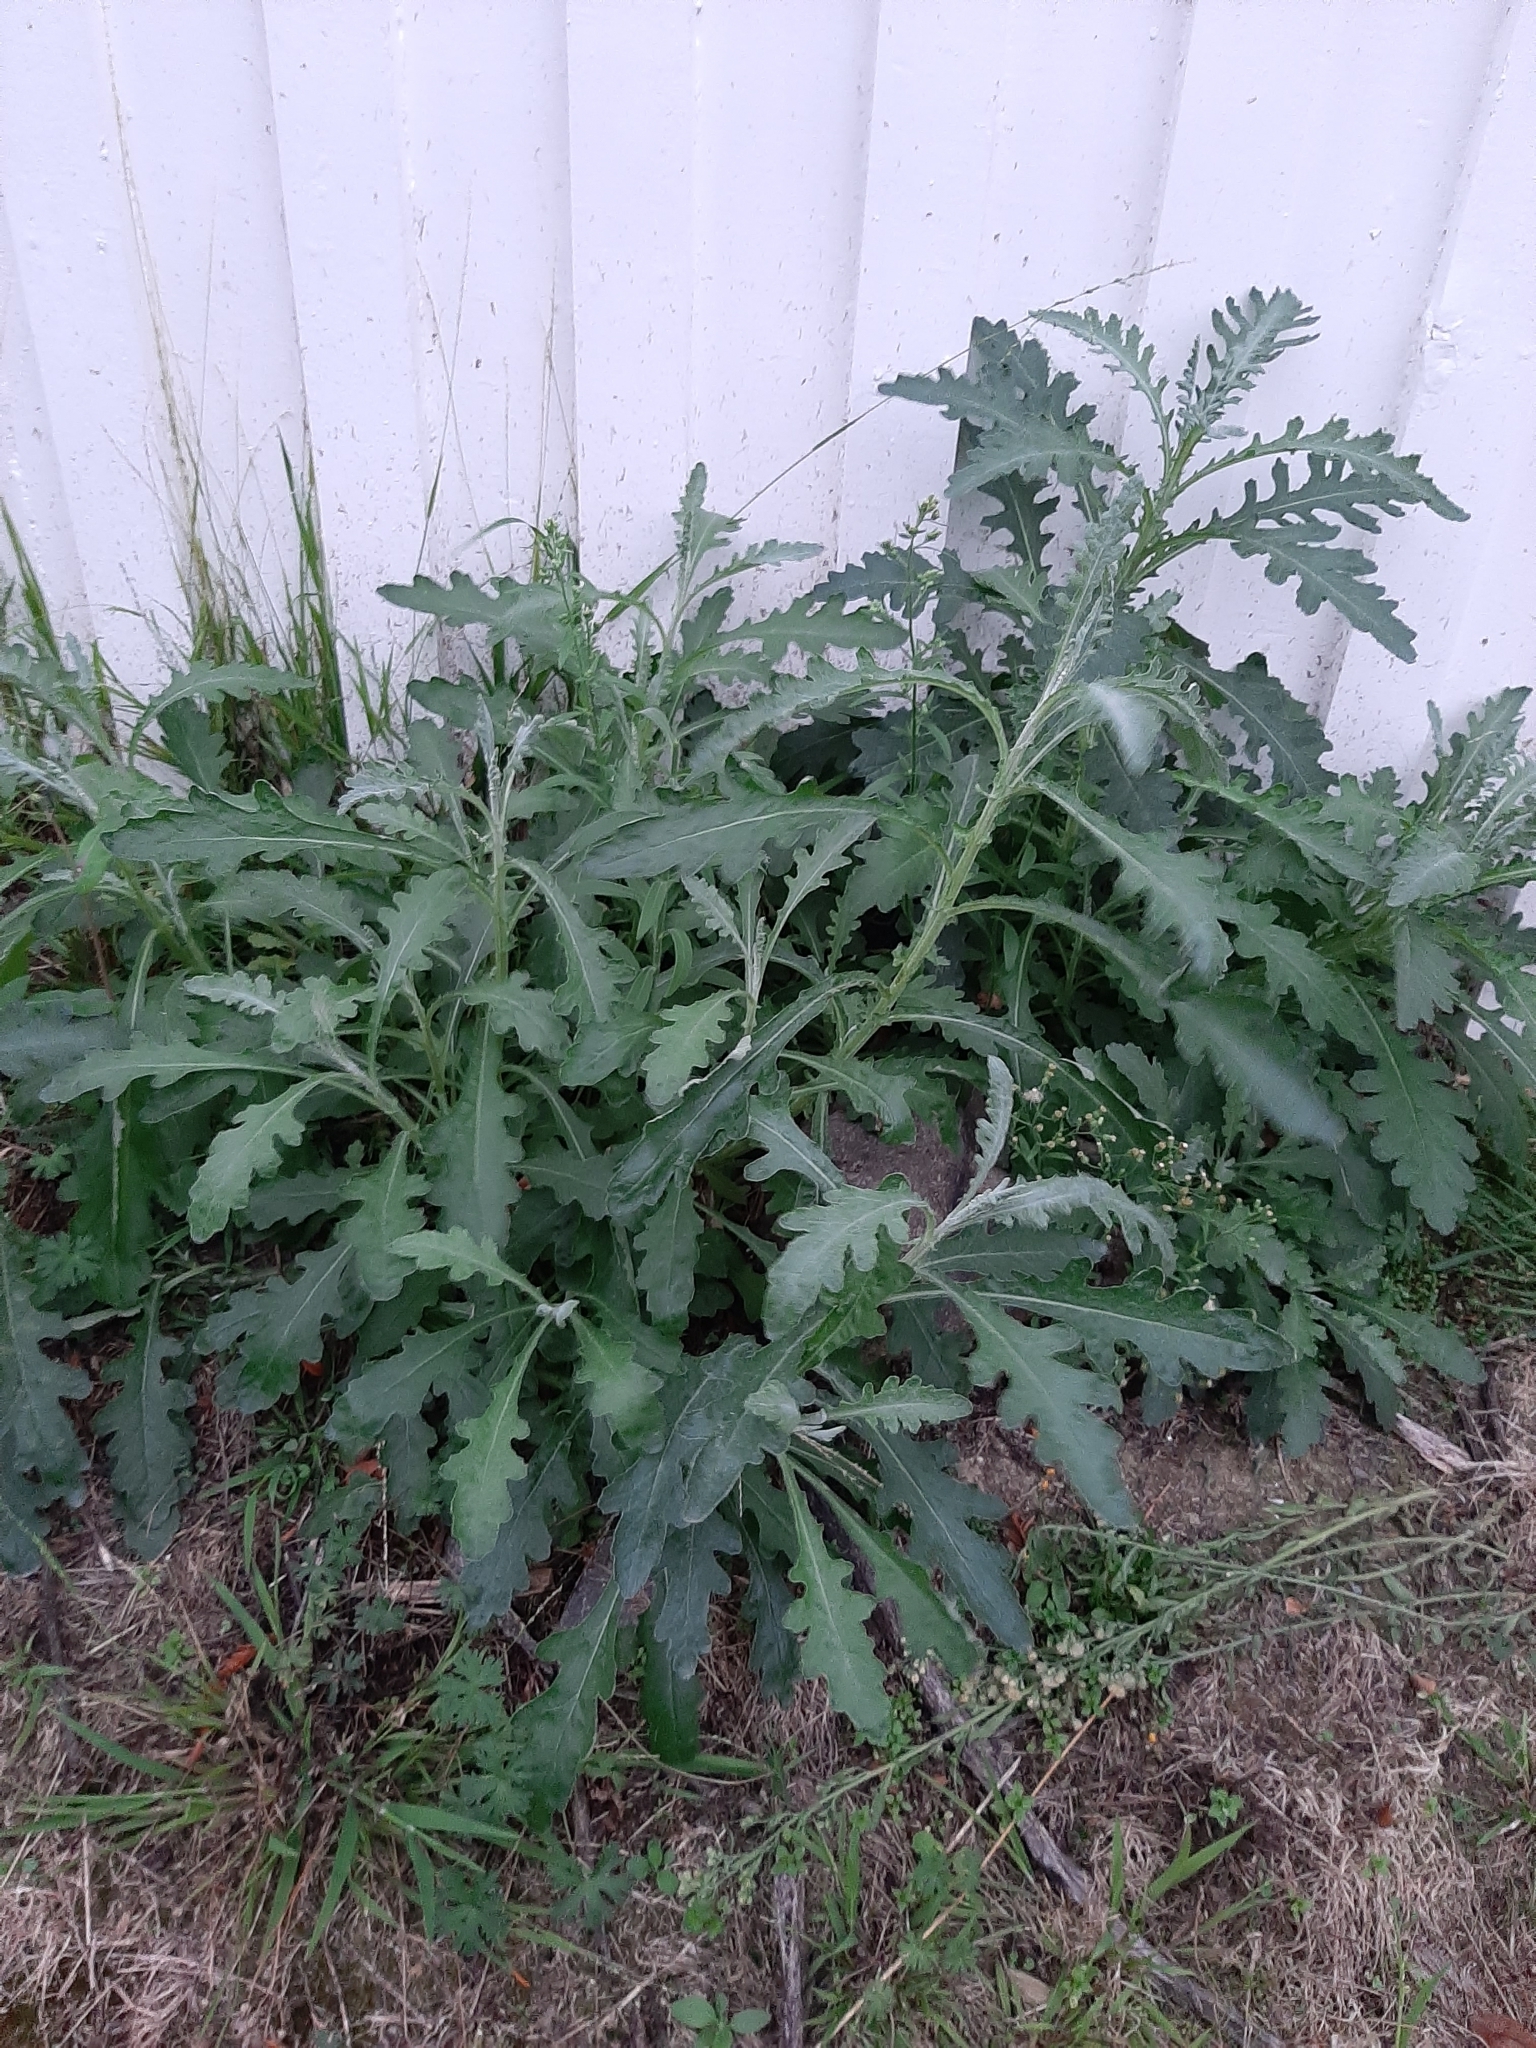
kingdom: Plantae
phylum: Tracheophyta
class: Magnoliopsida
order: Asterales
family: Asteraceae
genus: Senecio
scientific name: Senecio glomeratus
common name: Cutleaf burnweed
